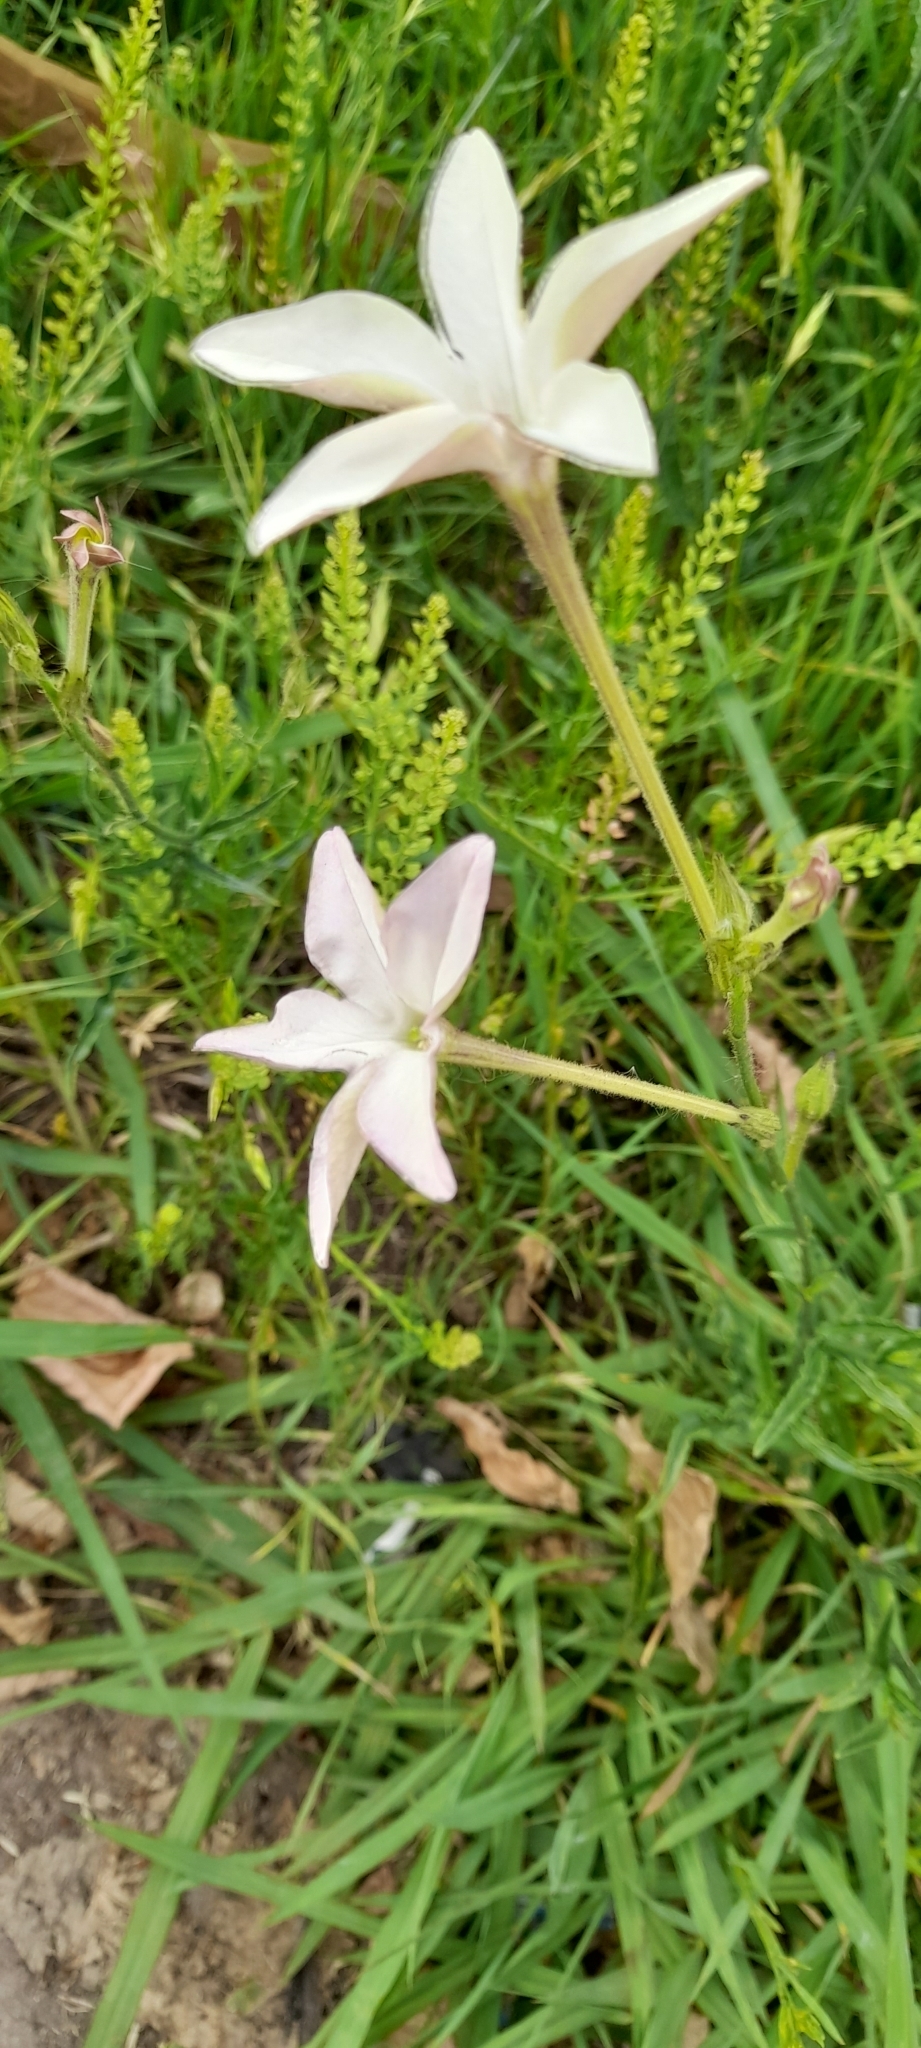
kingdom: Plantae
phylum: Tracheophyta
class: Magnoliopsida
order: Solanales
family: Solanaceae
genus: Nicotiana
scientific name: Nicotiana longiflora
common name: Long-flowered tobacco
